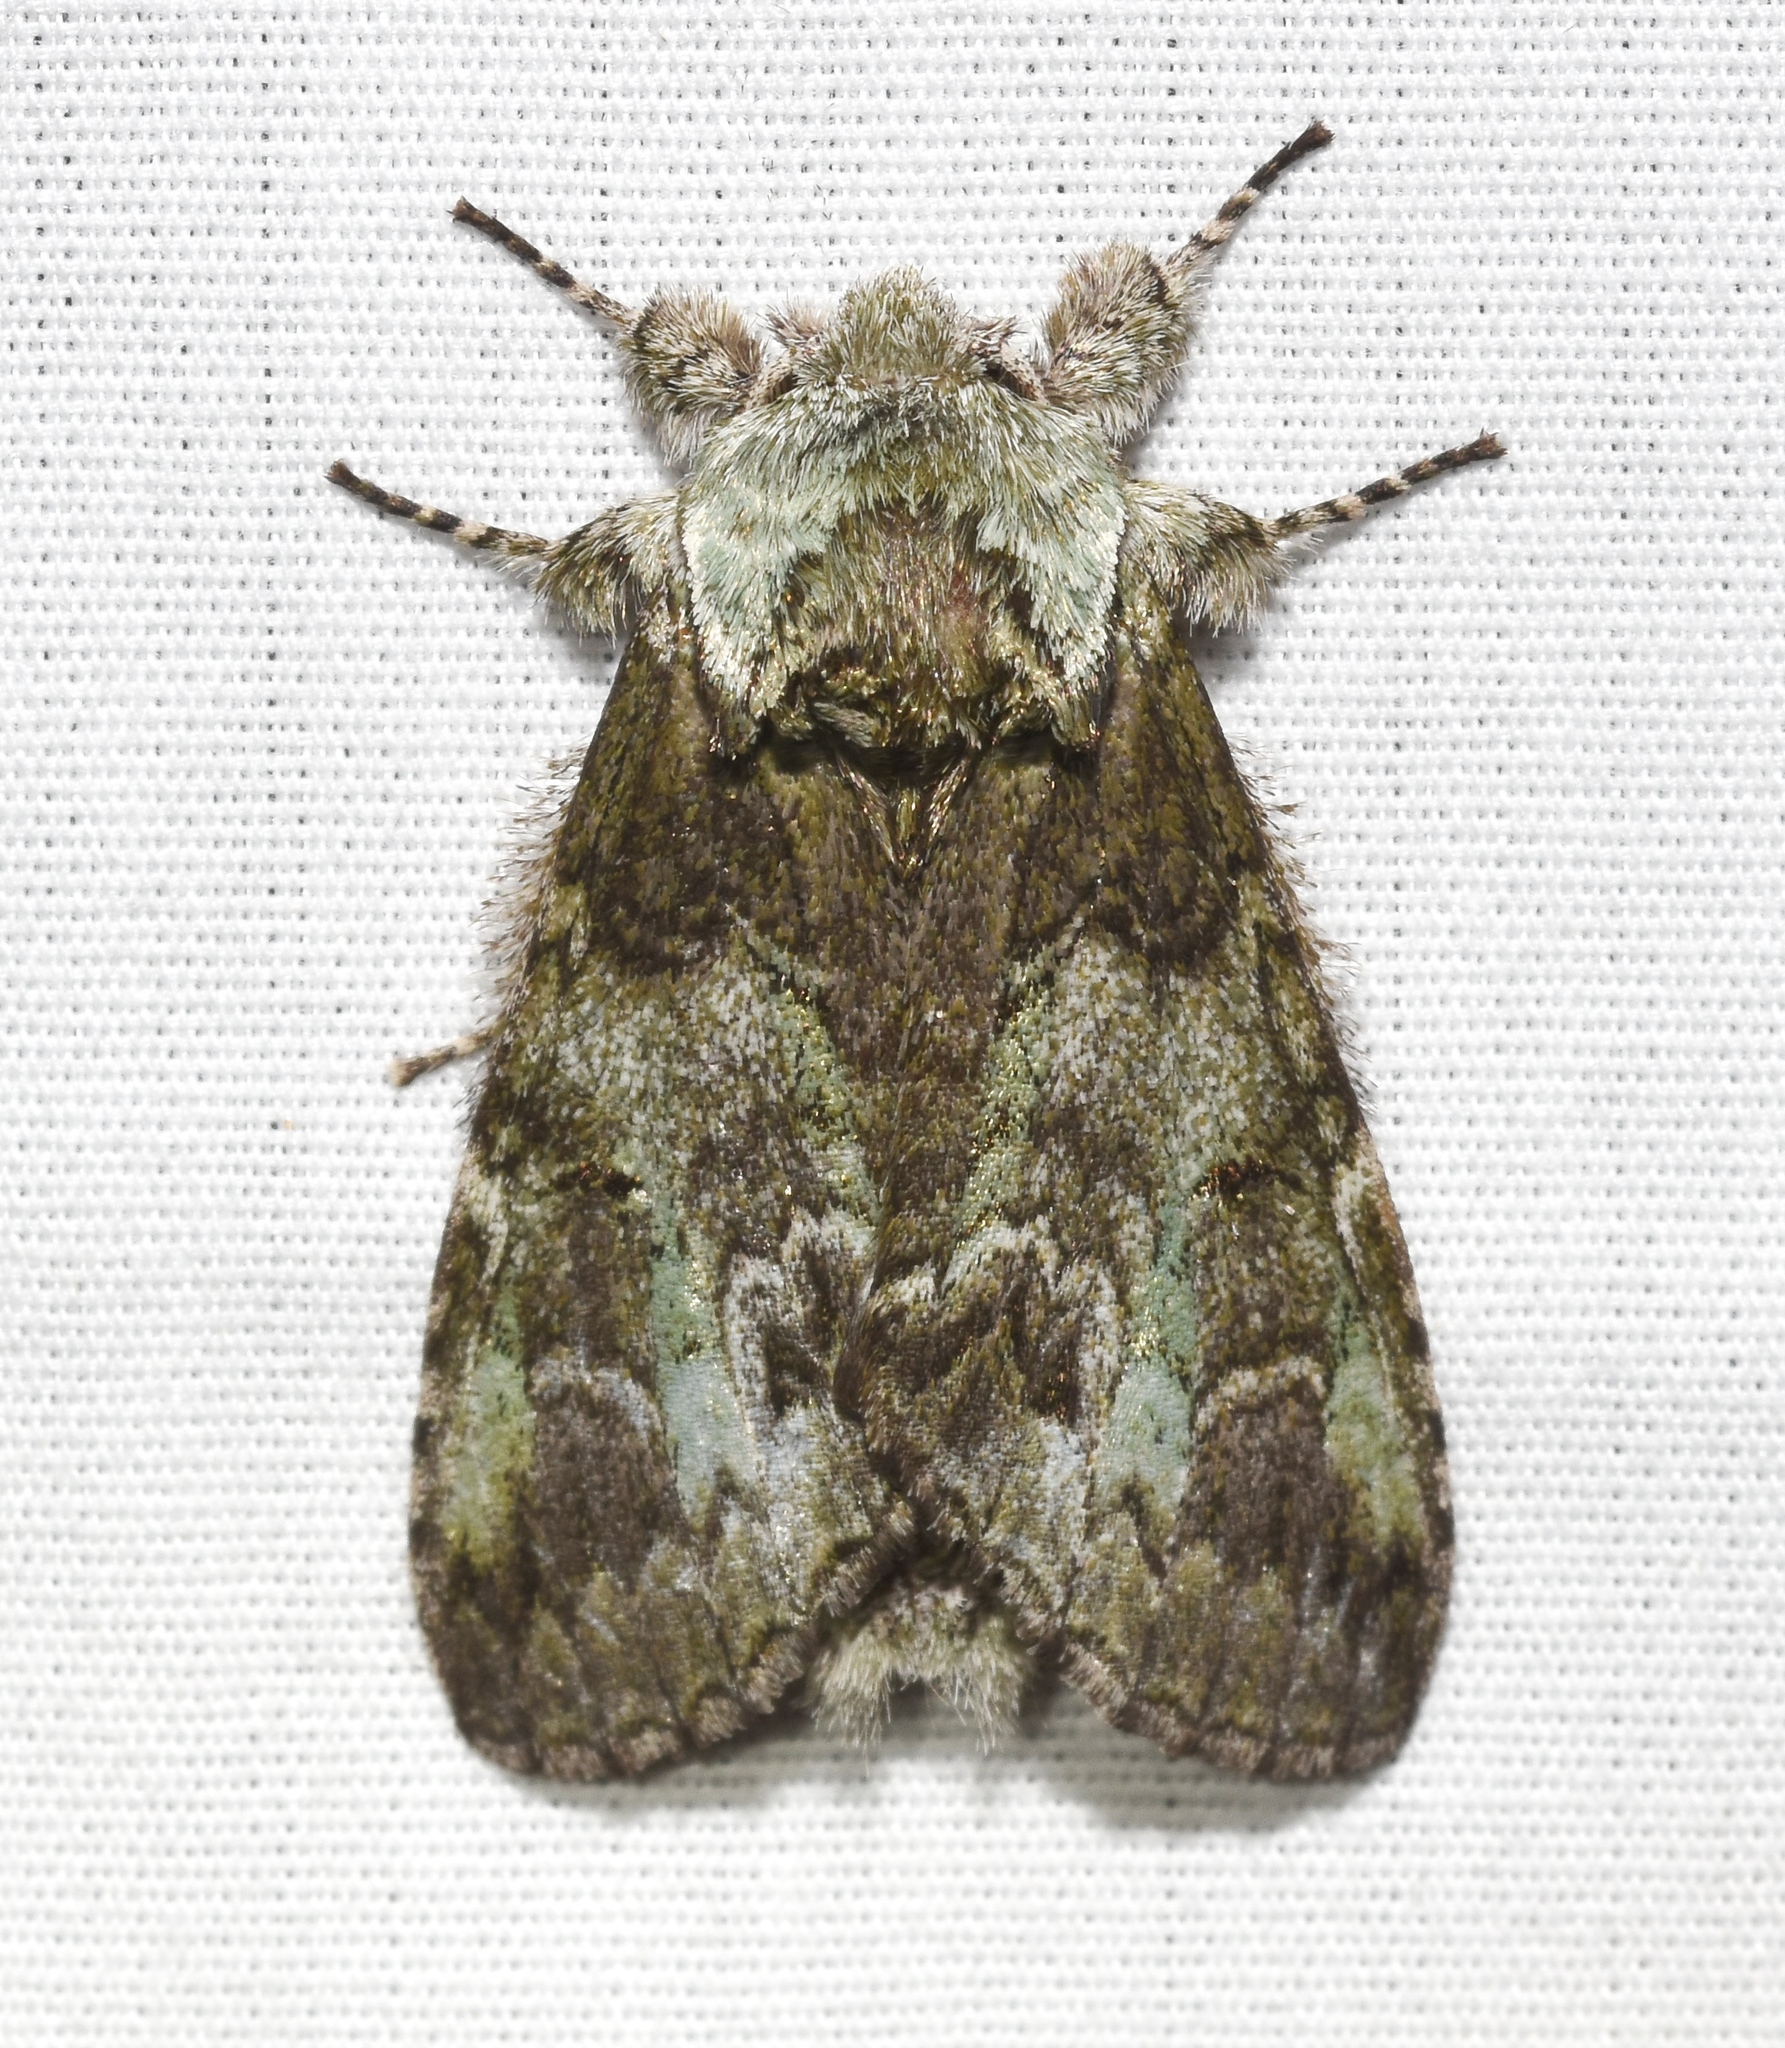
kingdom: Animalia
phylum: Arthropoda
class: Insecta
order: Lepidoptera
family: Notodontidae
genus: Macrurocampa
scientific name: Macrurocampa marthesia
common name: Mottled prominent
